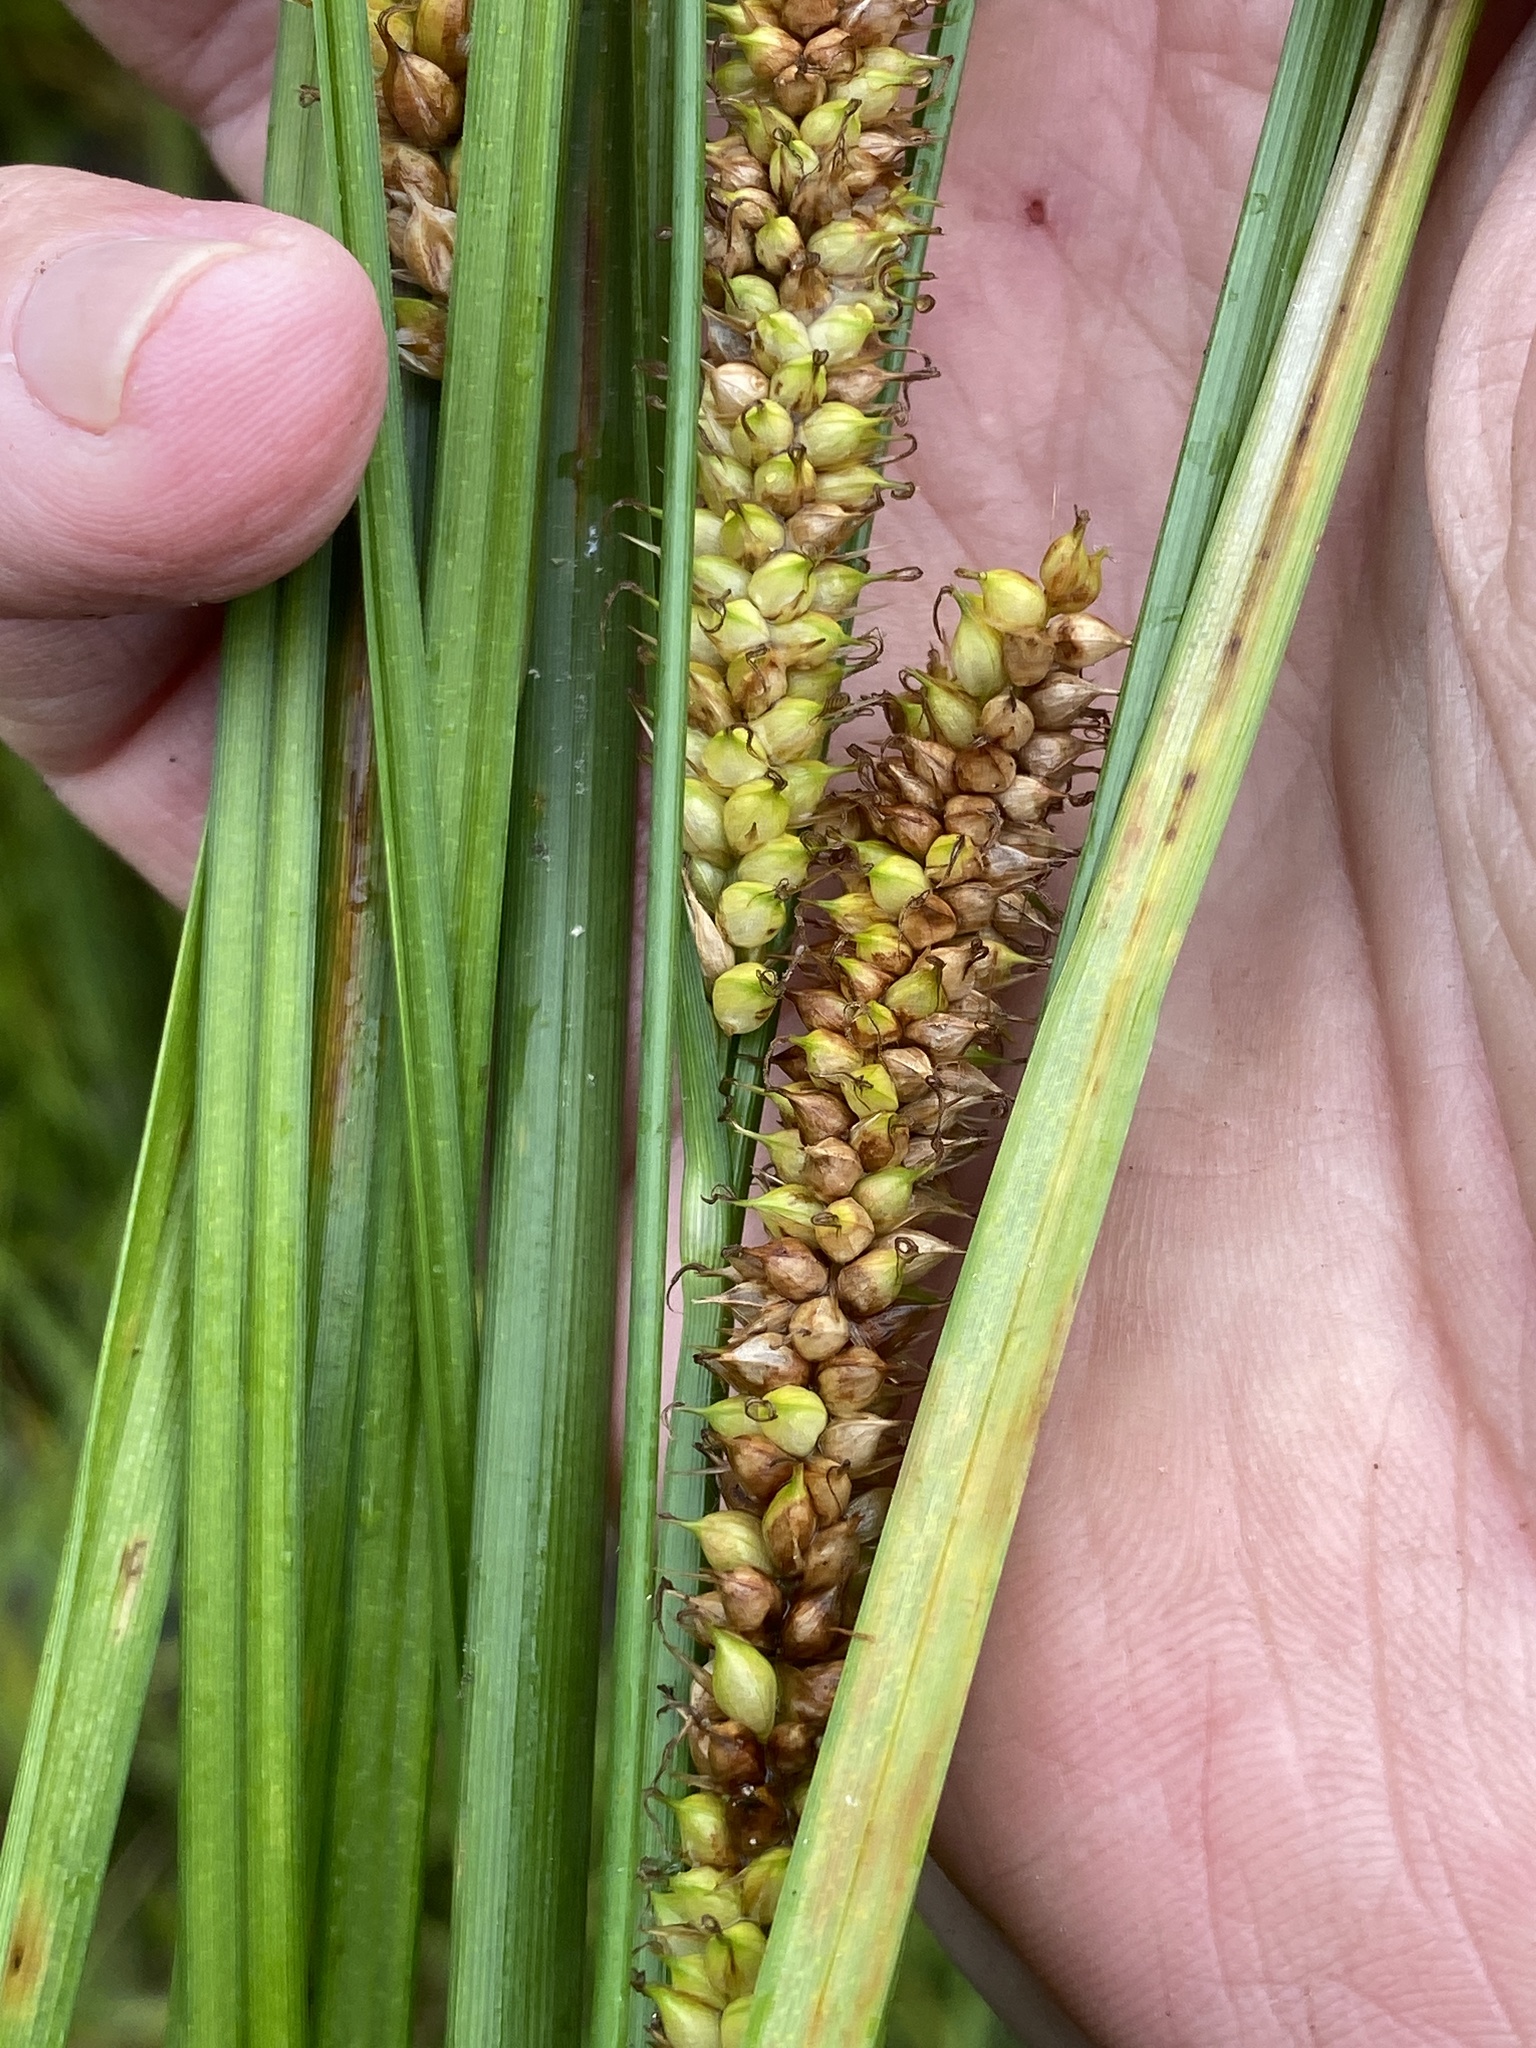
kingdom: Plantae
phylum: Tracheophyta
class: Liliopsida
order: Poales
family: Cyperaceae
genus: Carex
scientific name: Carex utriculata
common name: Beaked sedge
